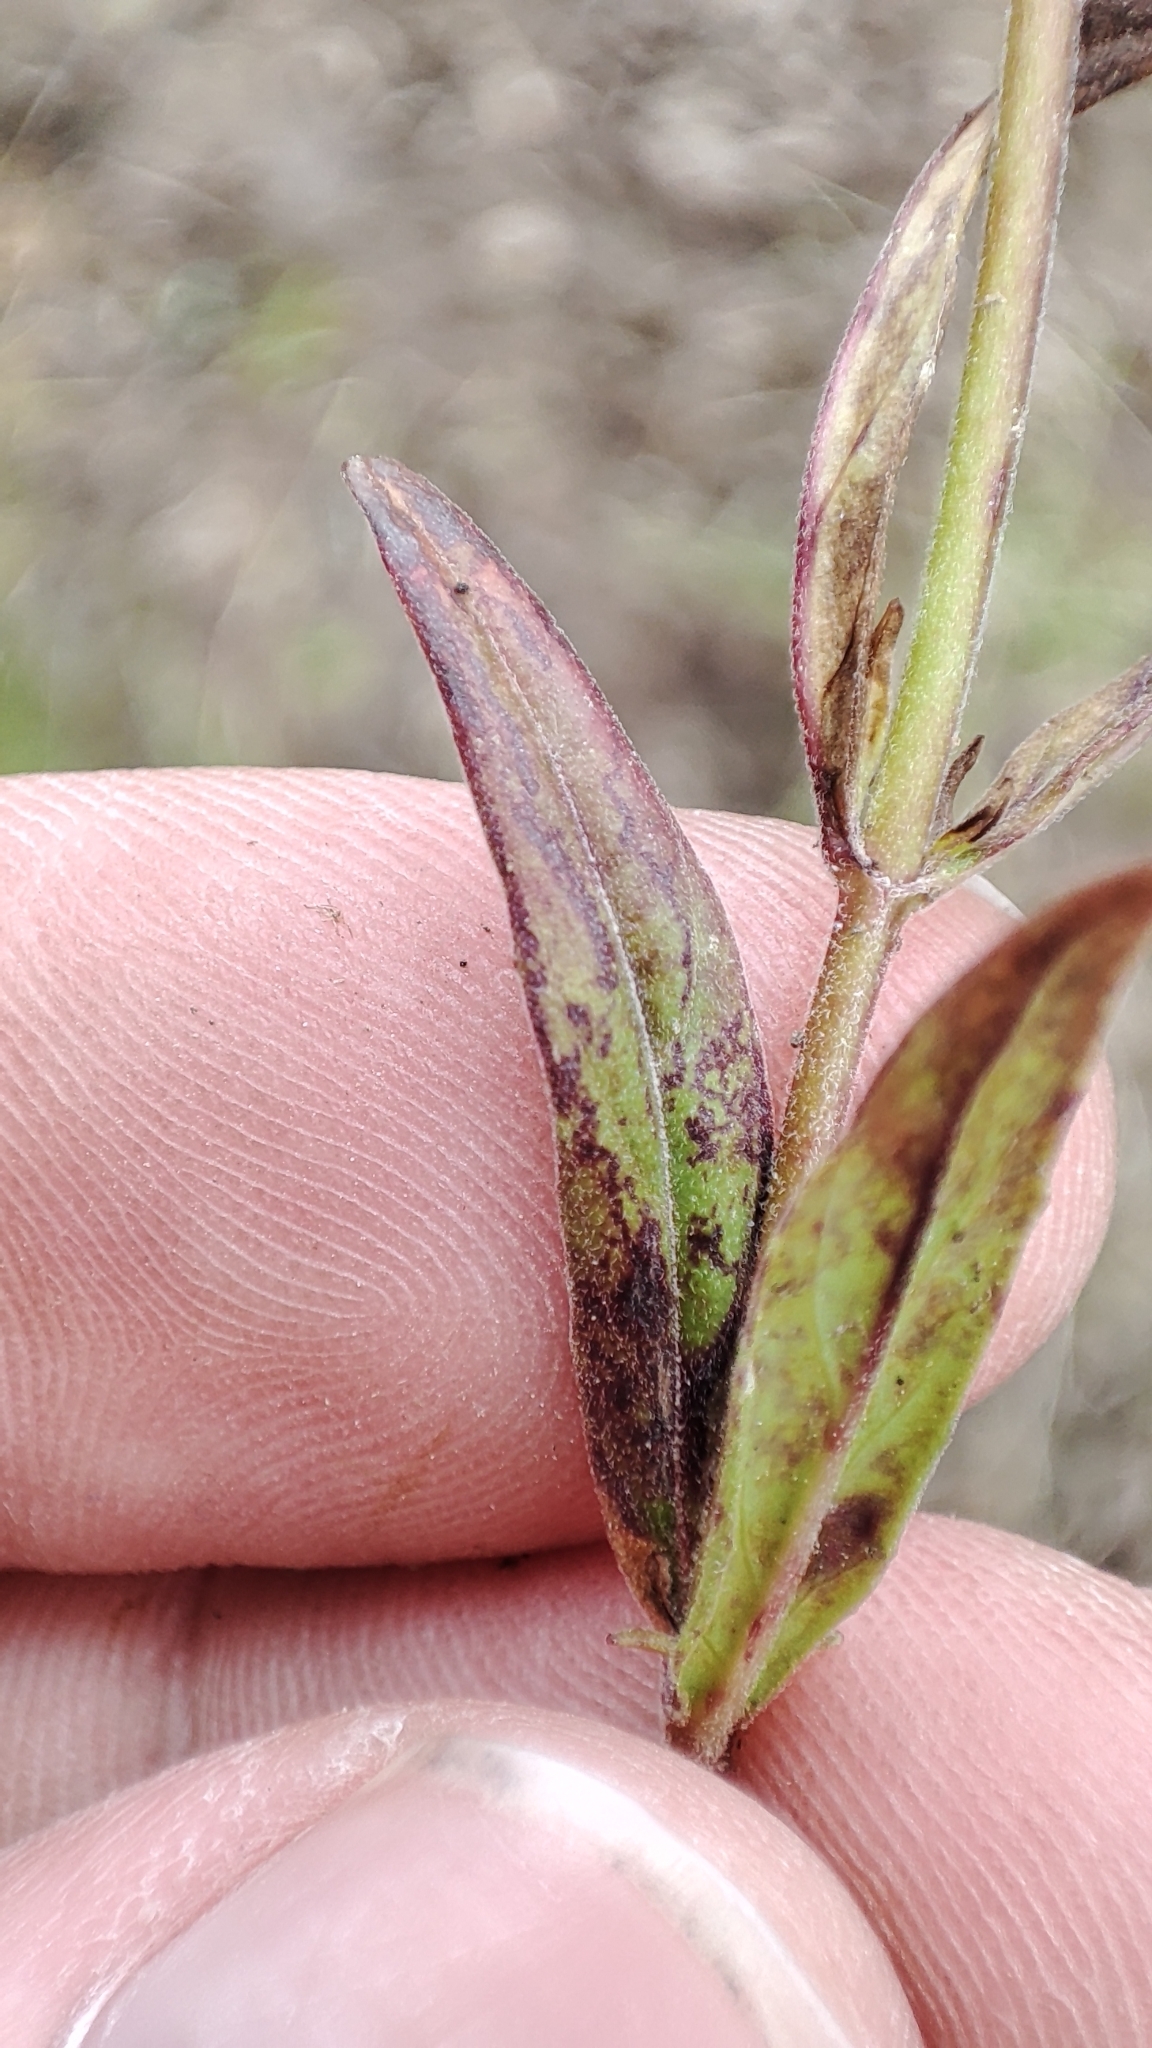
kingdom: Plantae
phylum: Tracheophyta
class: Magnoliopsida
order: Myrtales
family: Onagraceae
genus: Epilobium
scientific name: Epilobium palustre
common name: Marsh willowherb
